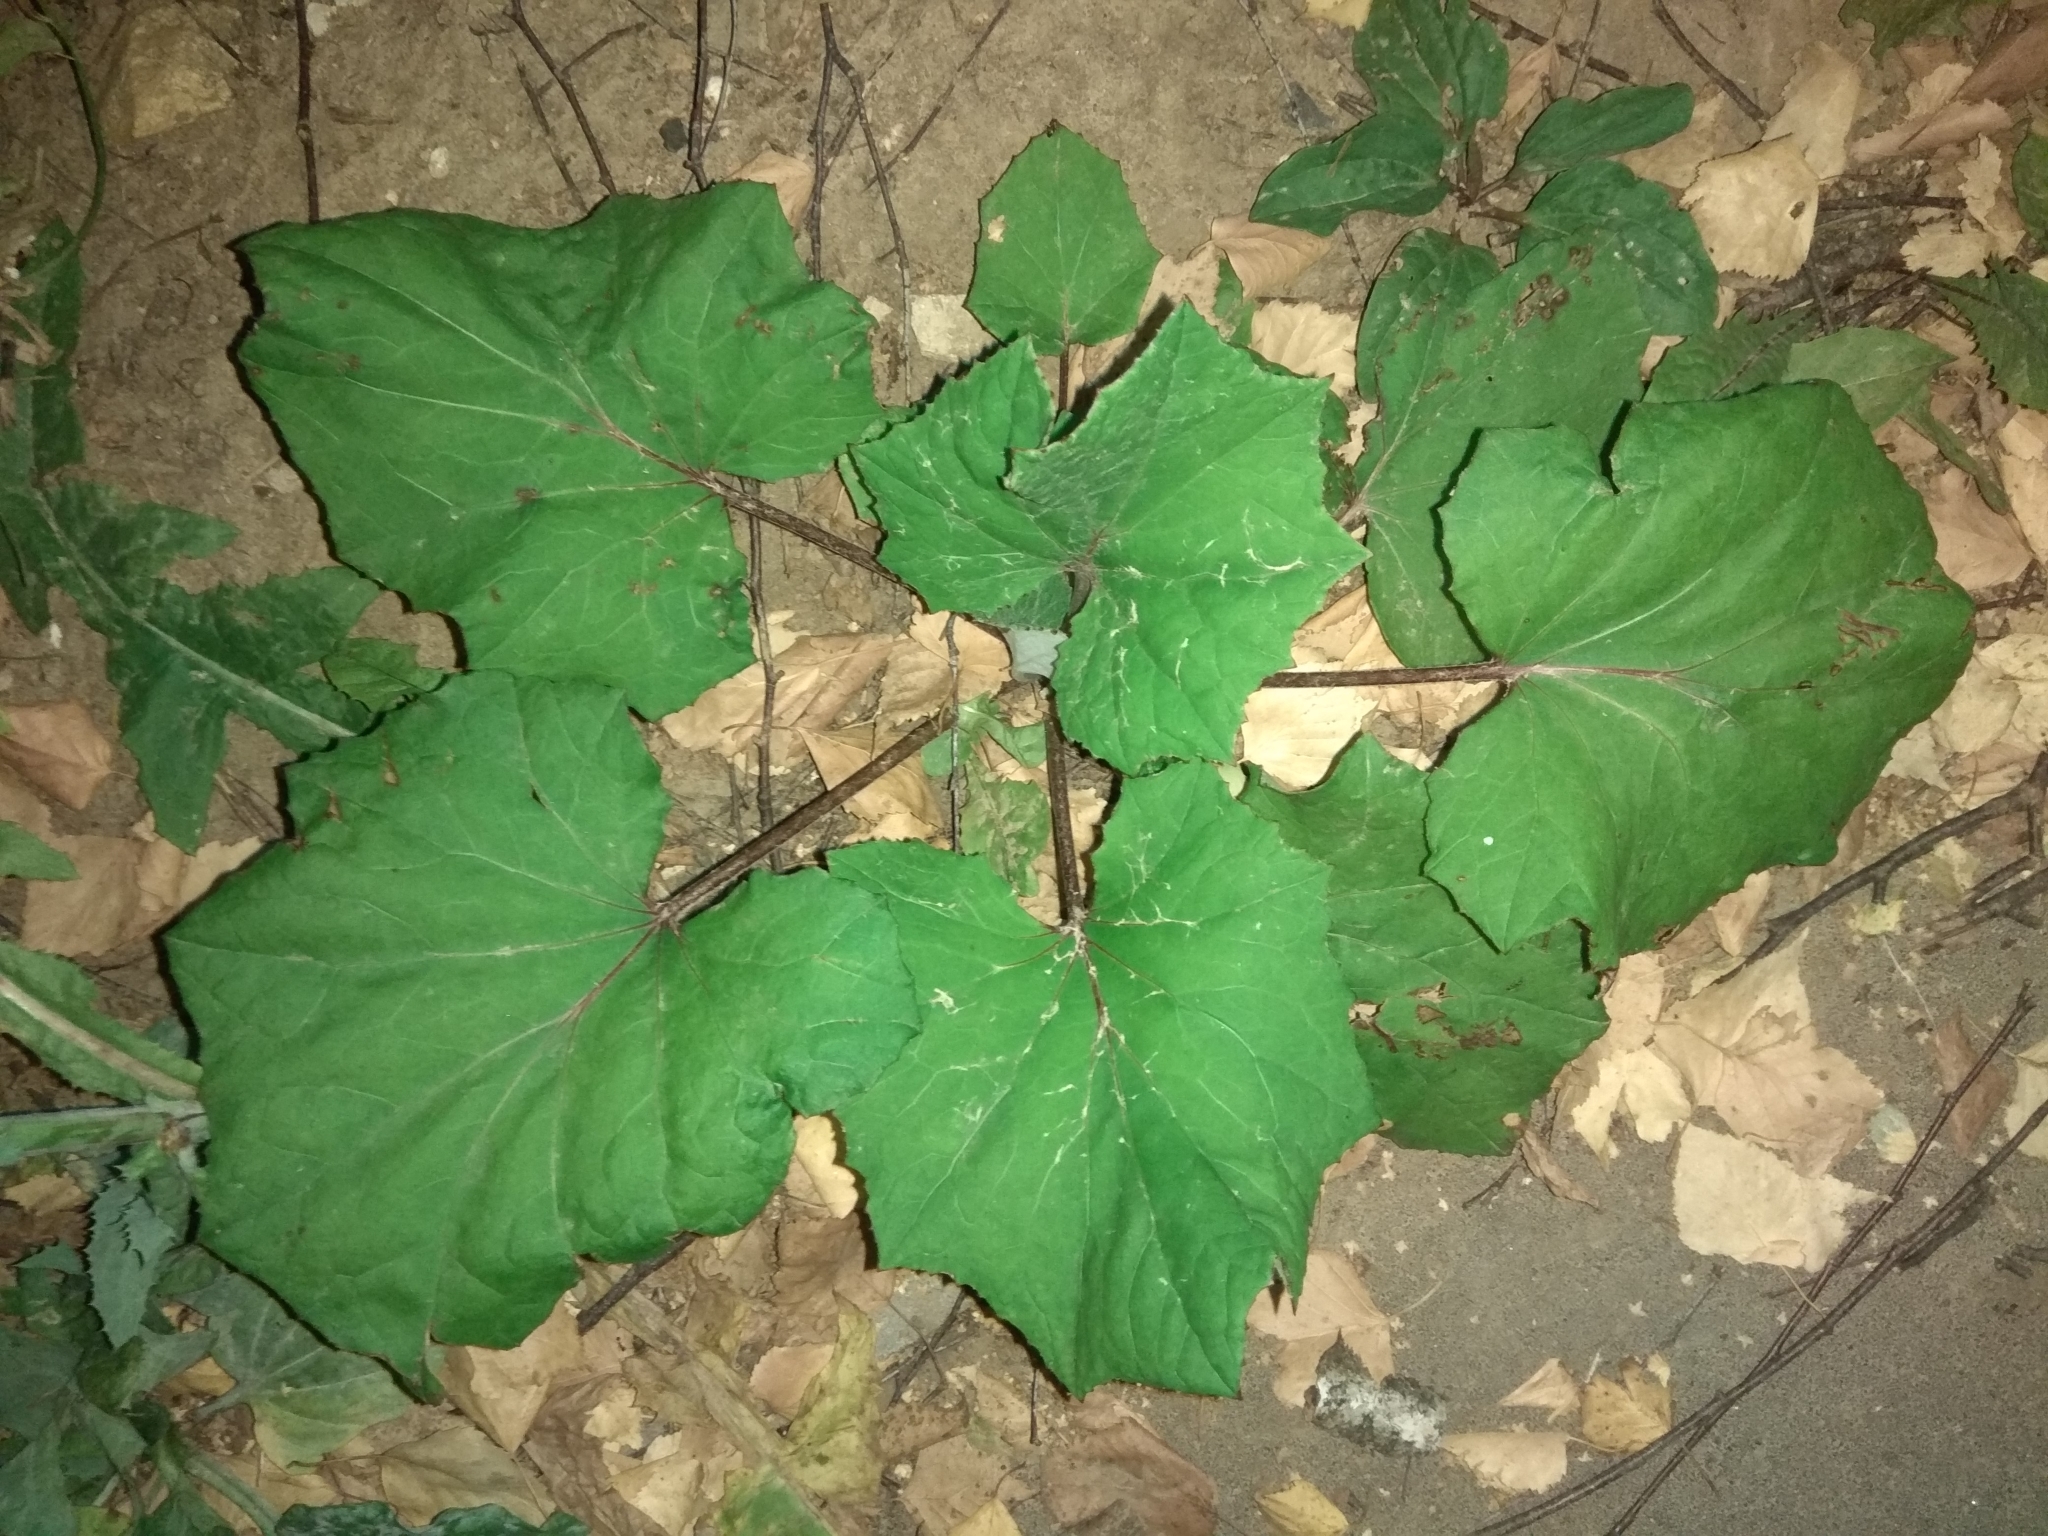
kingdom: Plantae
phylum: Tracheophyta
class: Magnoliopsida
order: Asterales
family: Asteraceae
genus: Tussilago
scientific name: Tussilago farfara
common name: Coltsfoot
